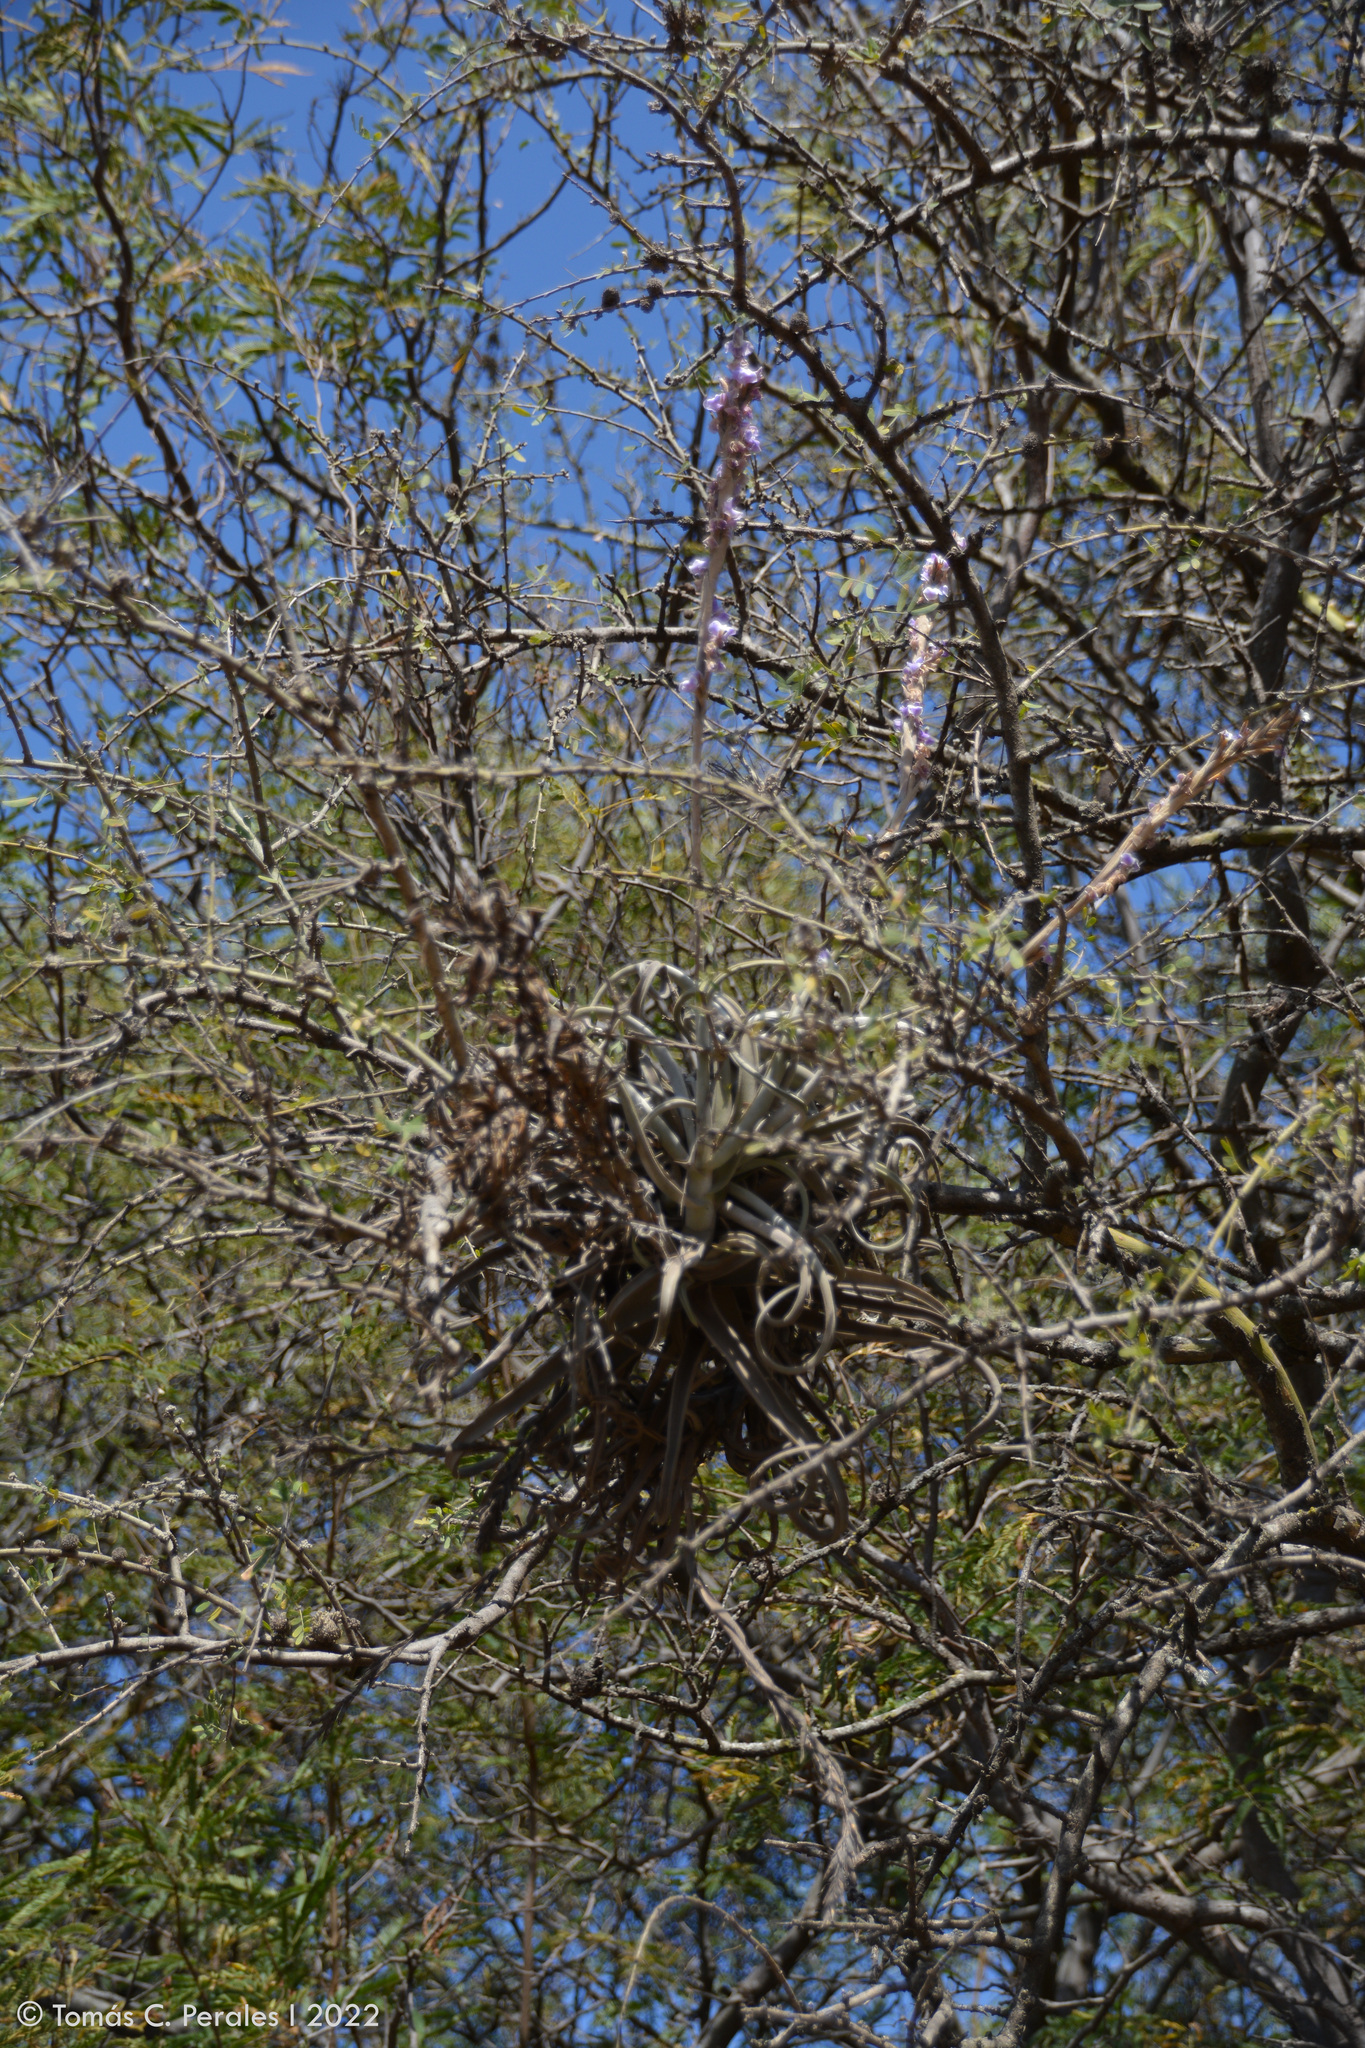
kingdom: Plantae
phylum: Tracheophyta
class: Liliopsida
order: Poales
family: Bromeliaceae
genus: Tillandsia
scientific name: Tillandsia duratii
